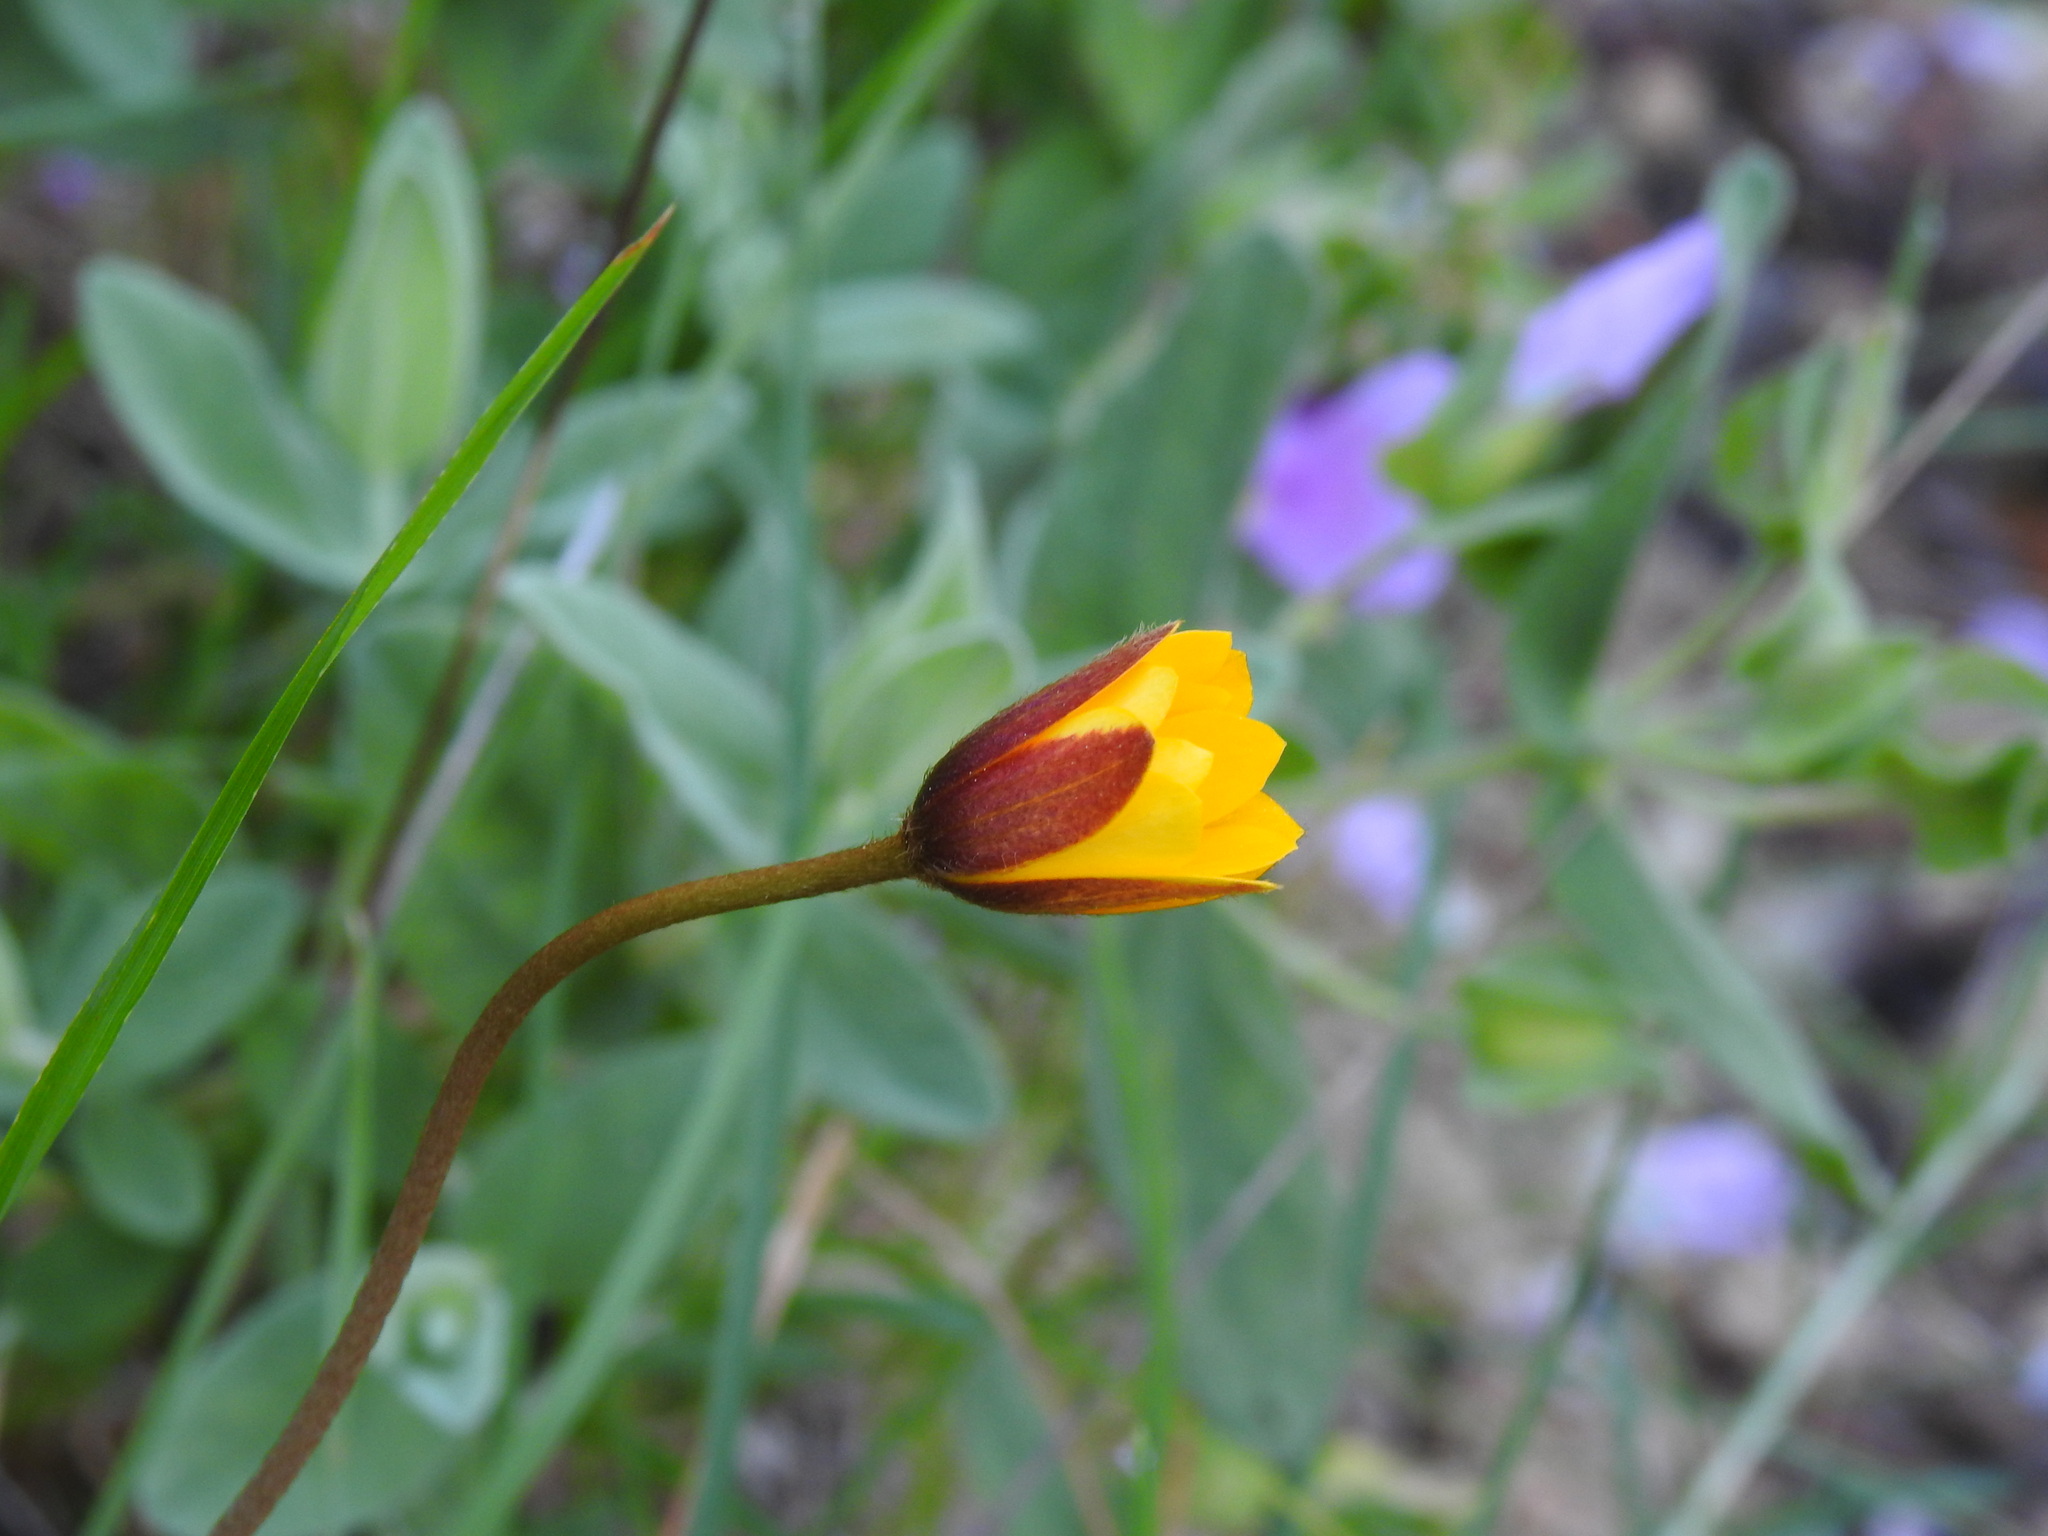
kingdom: Plantae
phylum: Tracheophyta
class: Magnoliopsida
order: Ranunculales
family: Ranunculaceae
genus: Anemone
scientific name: Anemone palmata
